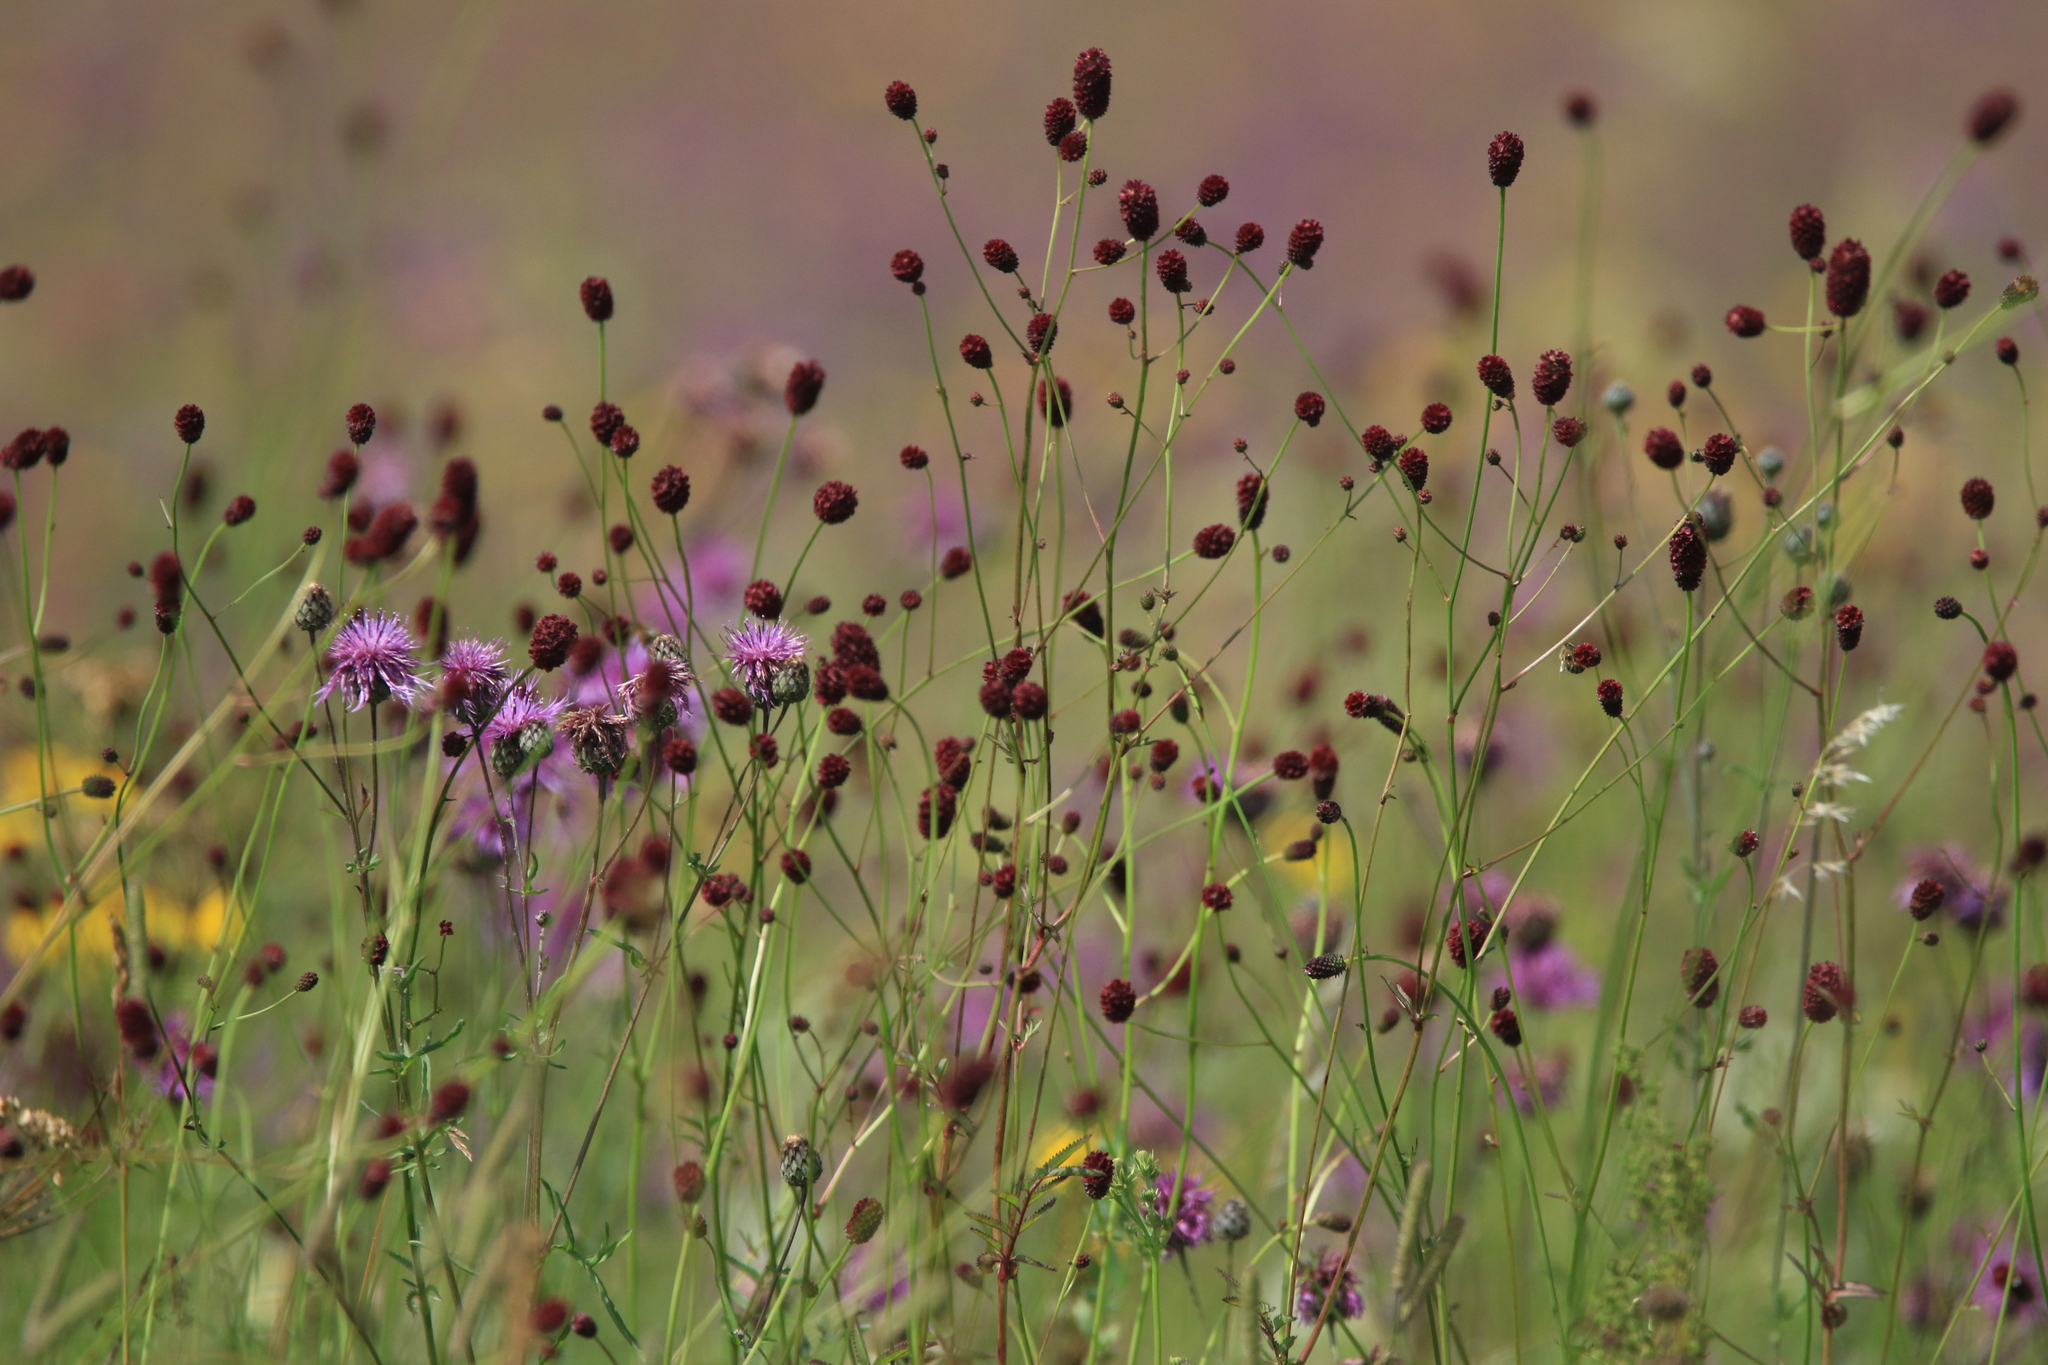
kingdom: Plantae
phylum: Tracheophyta
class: Magnoliopsida
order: Rosales
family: Rosaceae
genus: Sanguisorba
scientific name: Sanguisorba officinalis
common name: Great burnet
